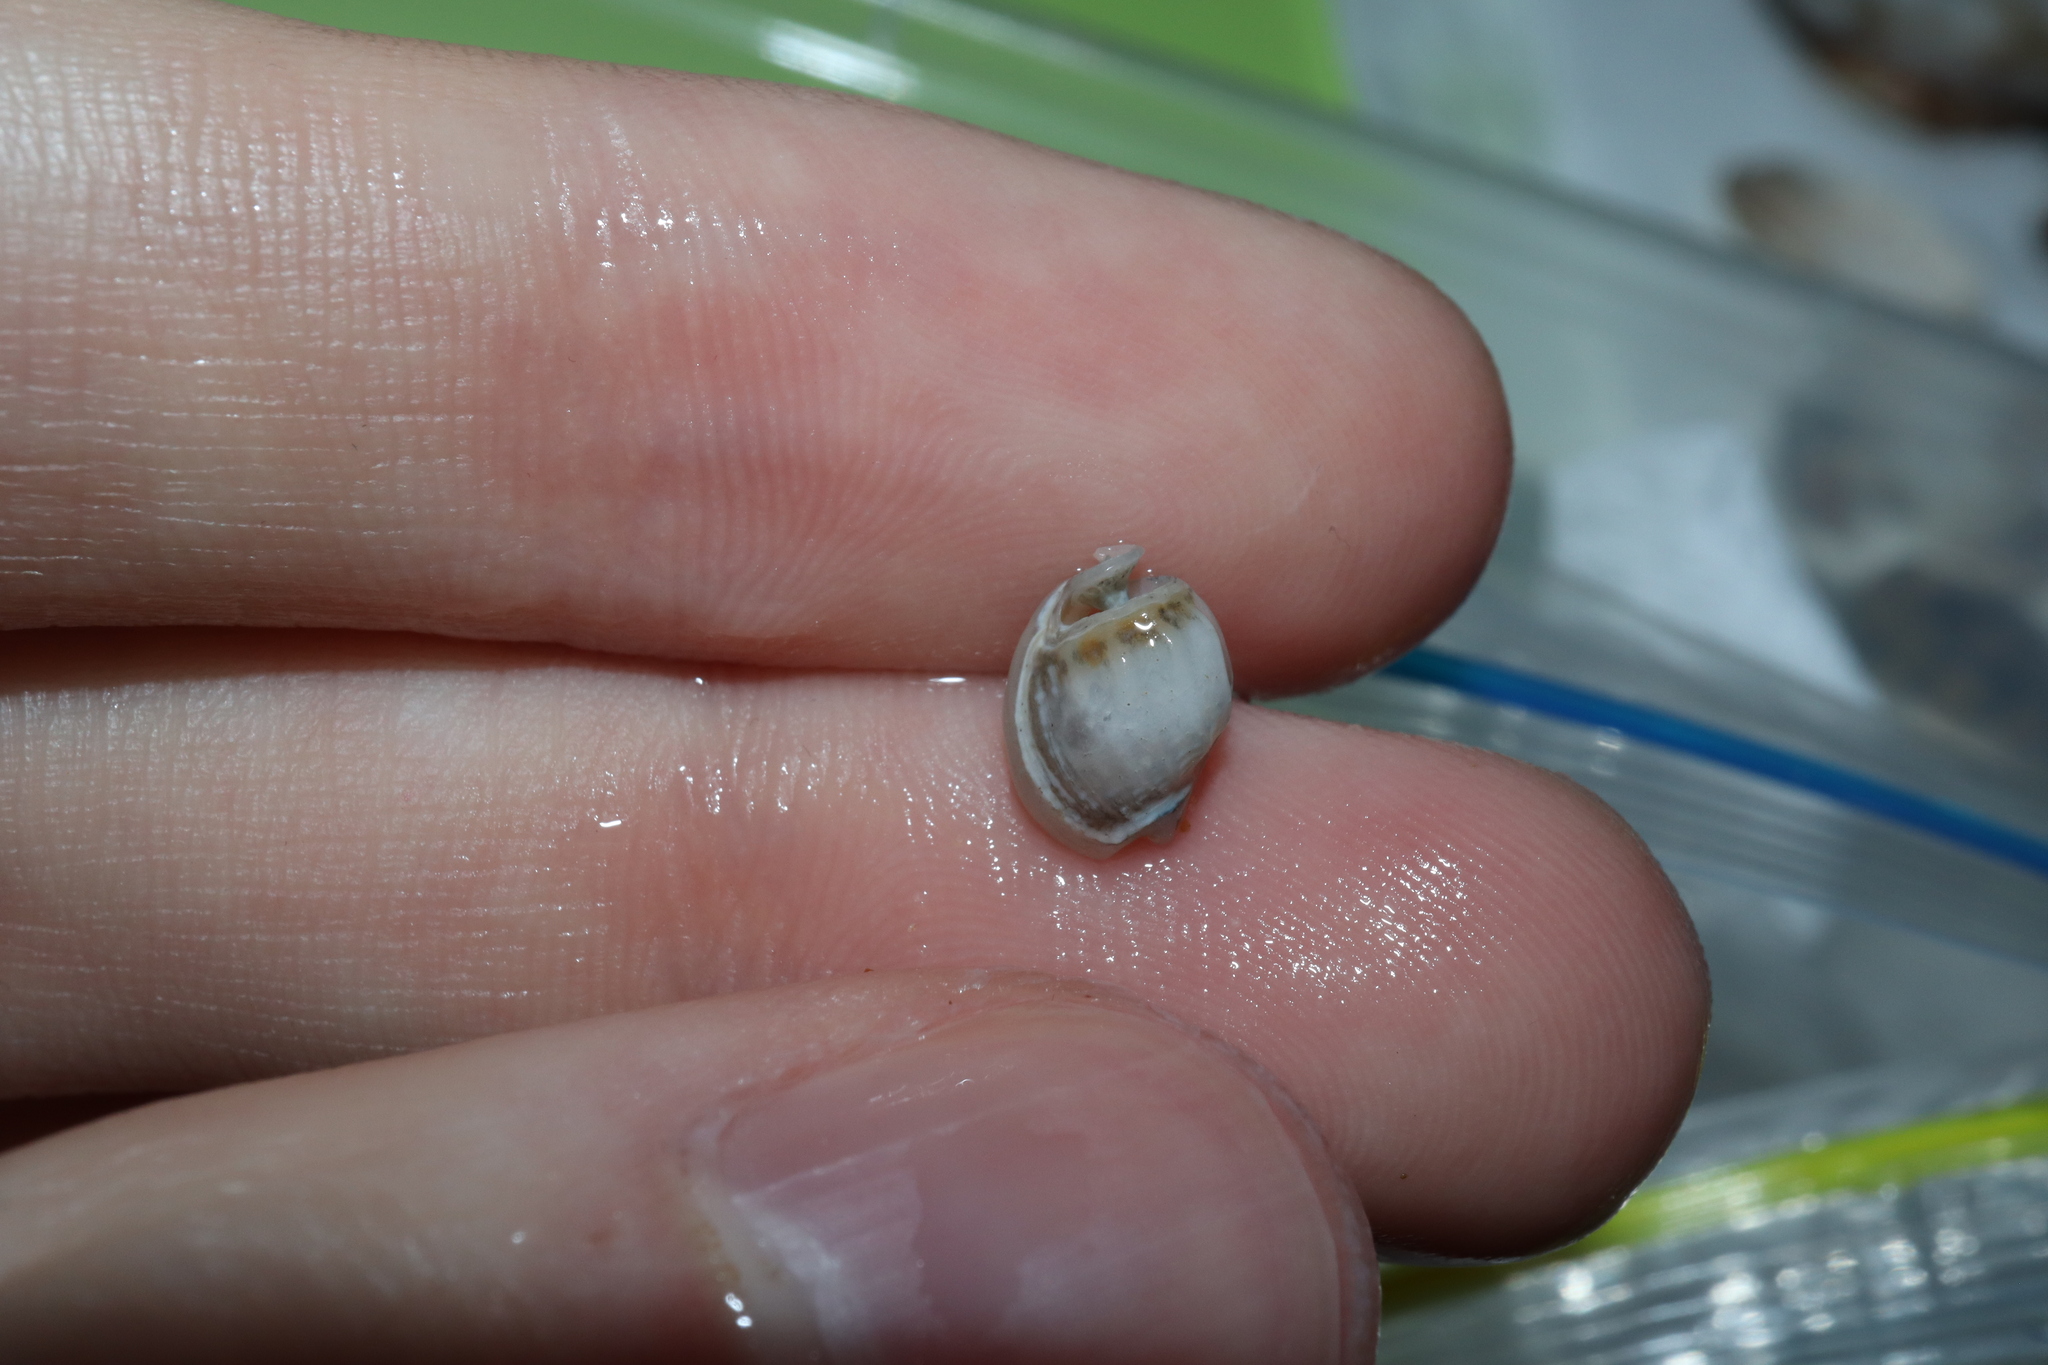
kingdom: Animalia
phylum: Mollusca
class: Gastropoda
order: Neogastropoda
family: Nassariidae
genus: Nassarius
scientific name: Nassarius jonasii
